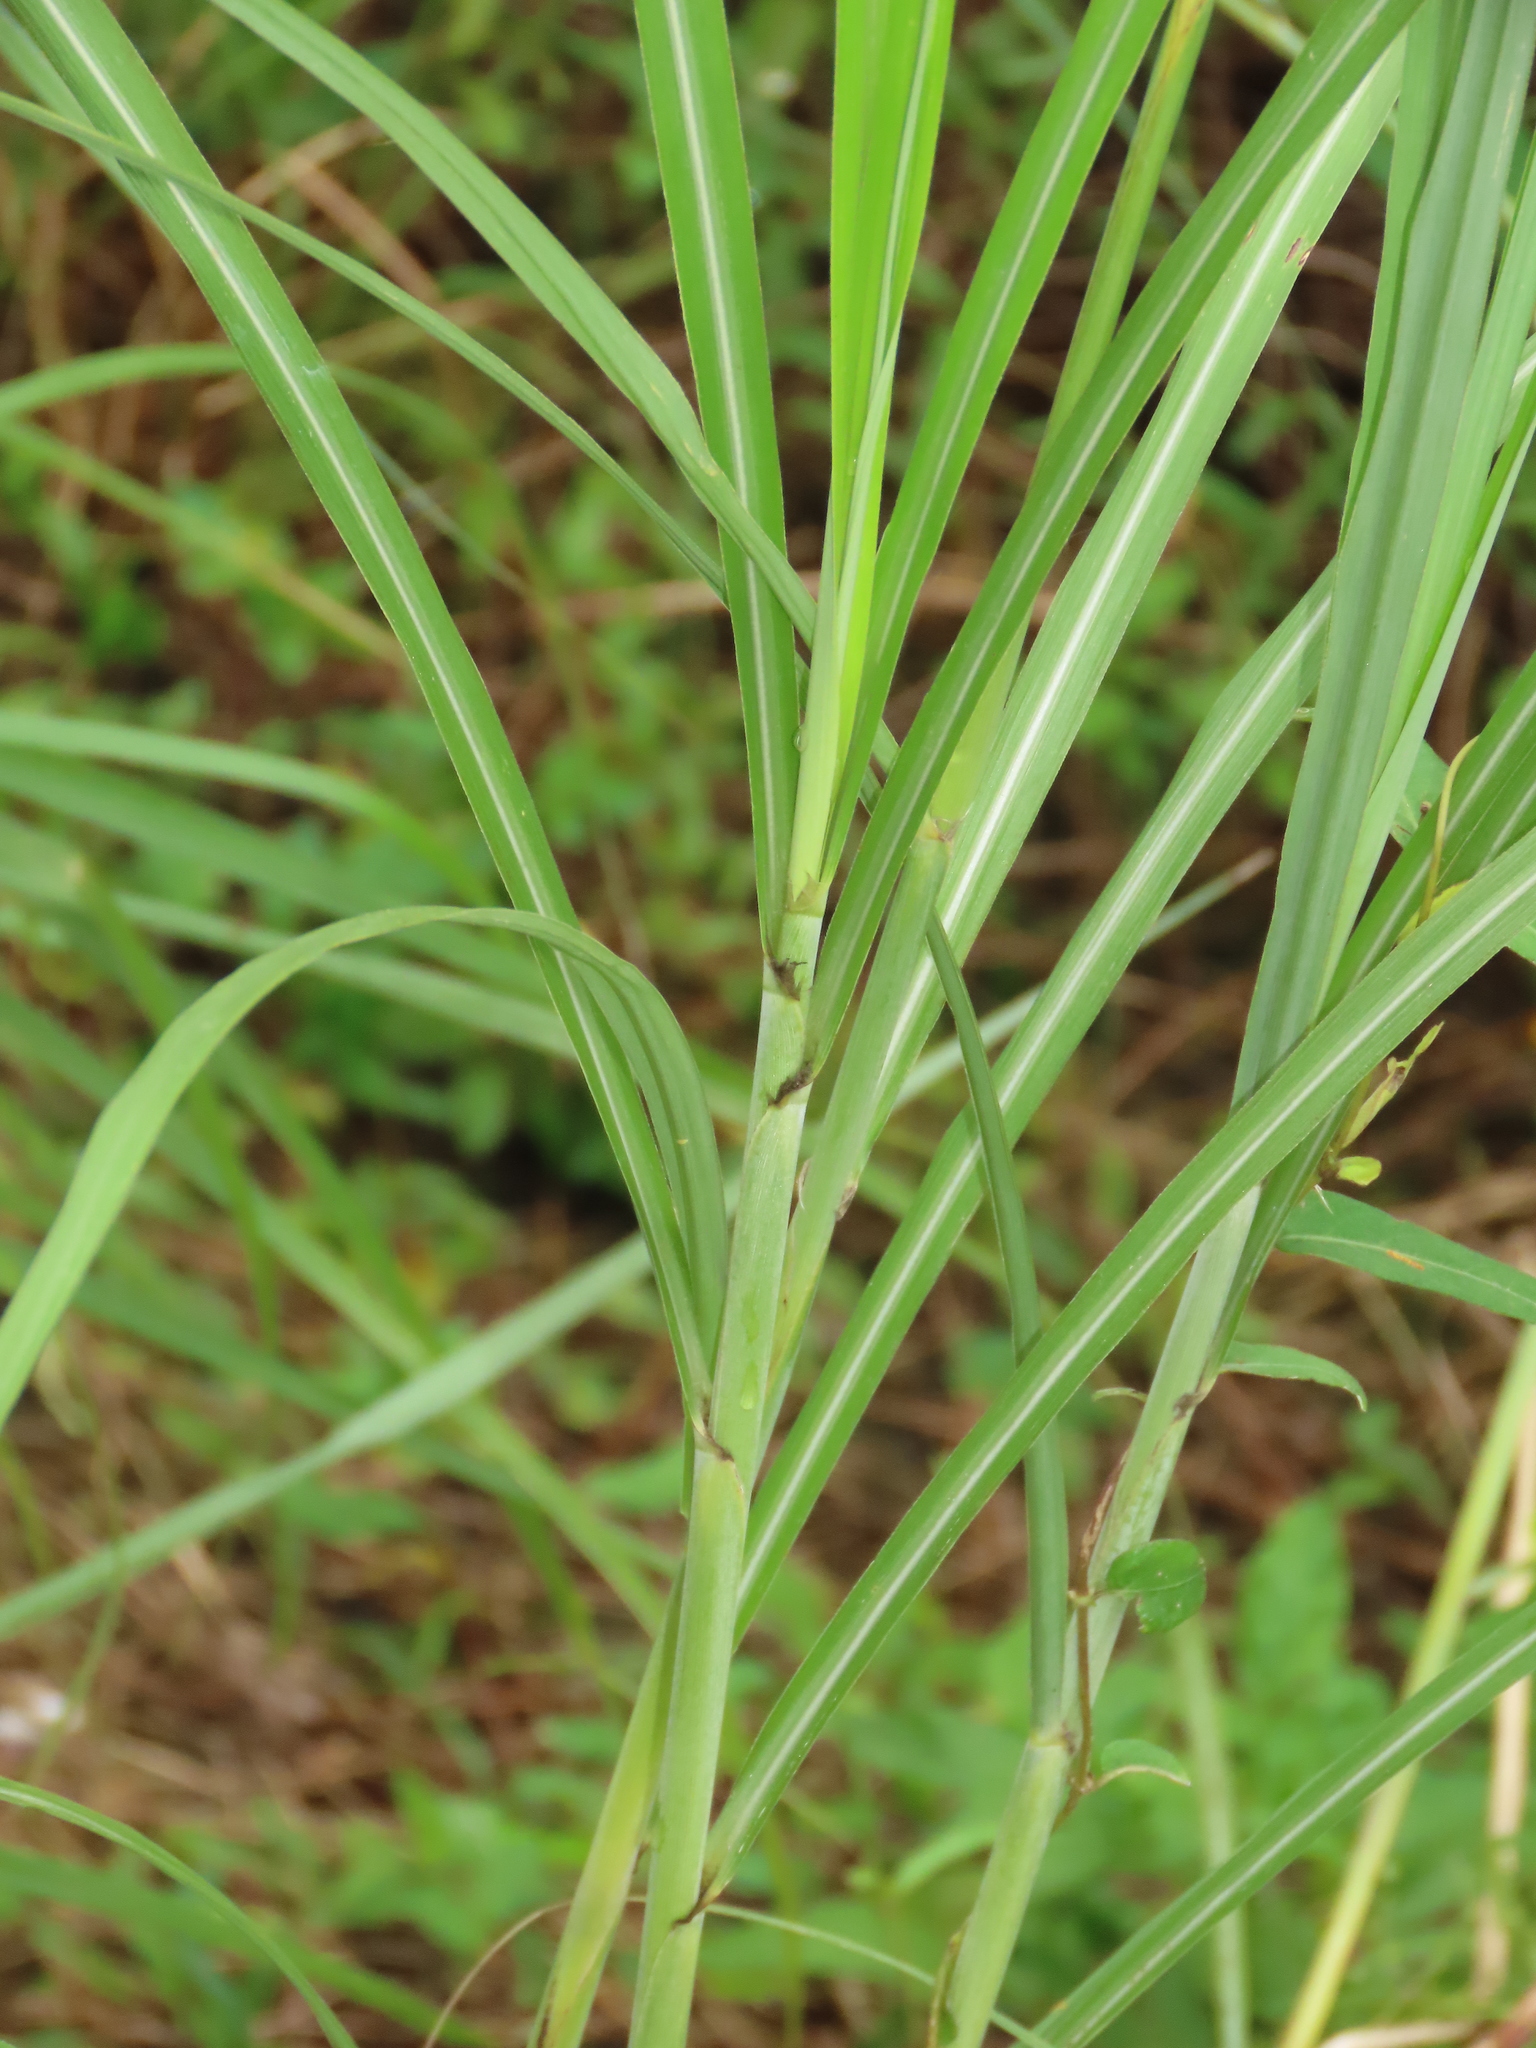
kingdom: Plantae
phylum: Tracheophyta
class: Liliopsida
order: Poales
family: Poaceae
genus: Saccharum
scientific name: Saccharum spontaneum
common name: Wild sugarcane
